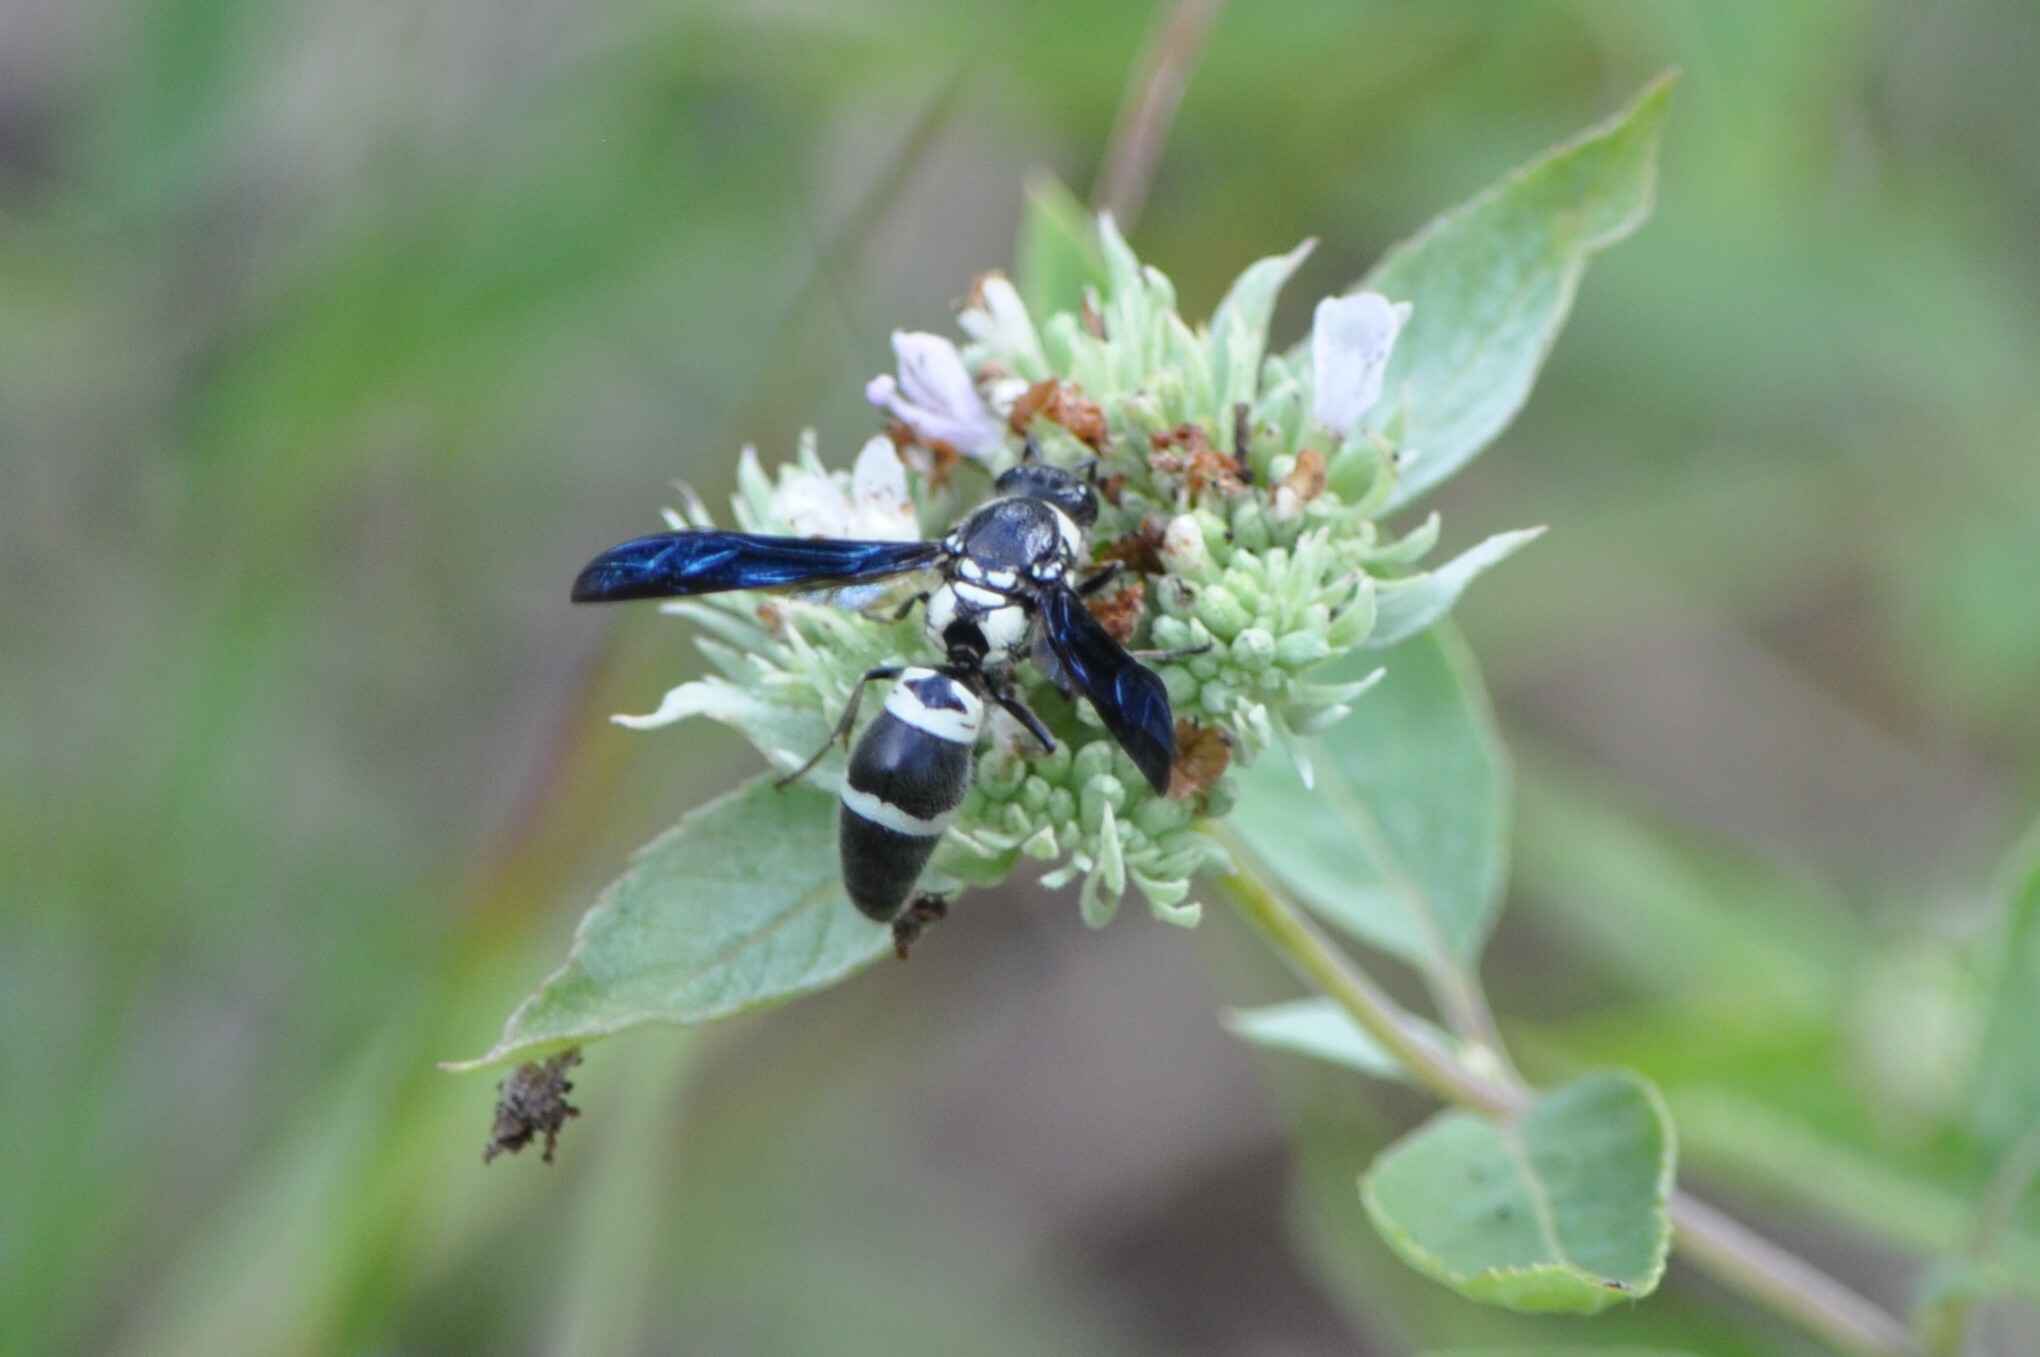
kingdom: Animalia
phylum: Arthropoda
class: Insecta
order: Hymenoptera
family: Eumenidae
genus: Pseudodynerus
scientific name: Pseudodynerus quadrisectus
